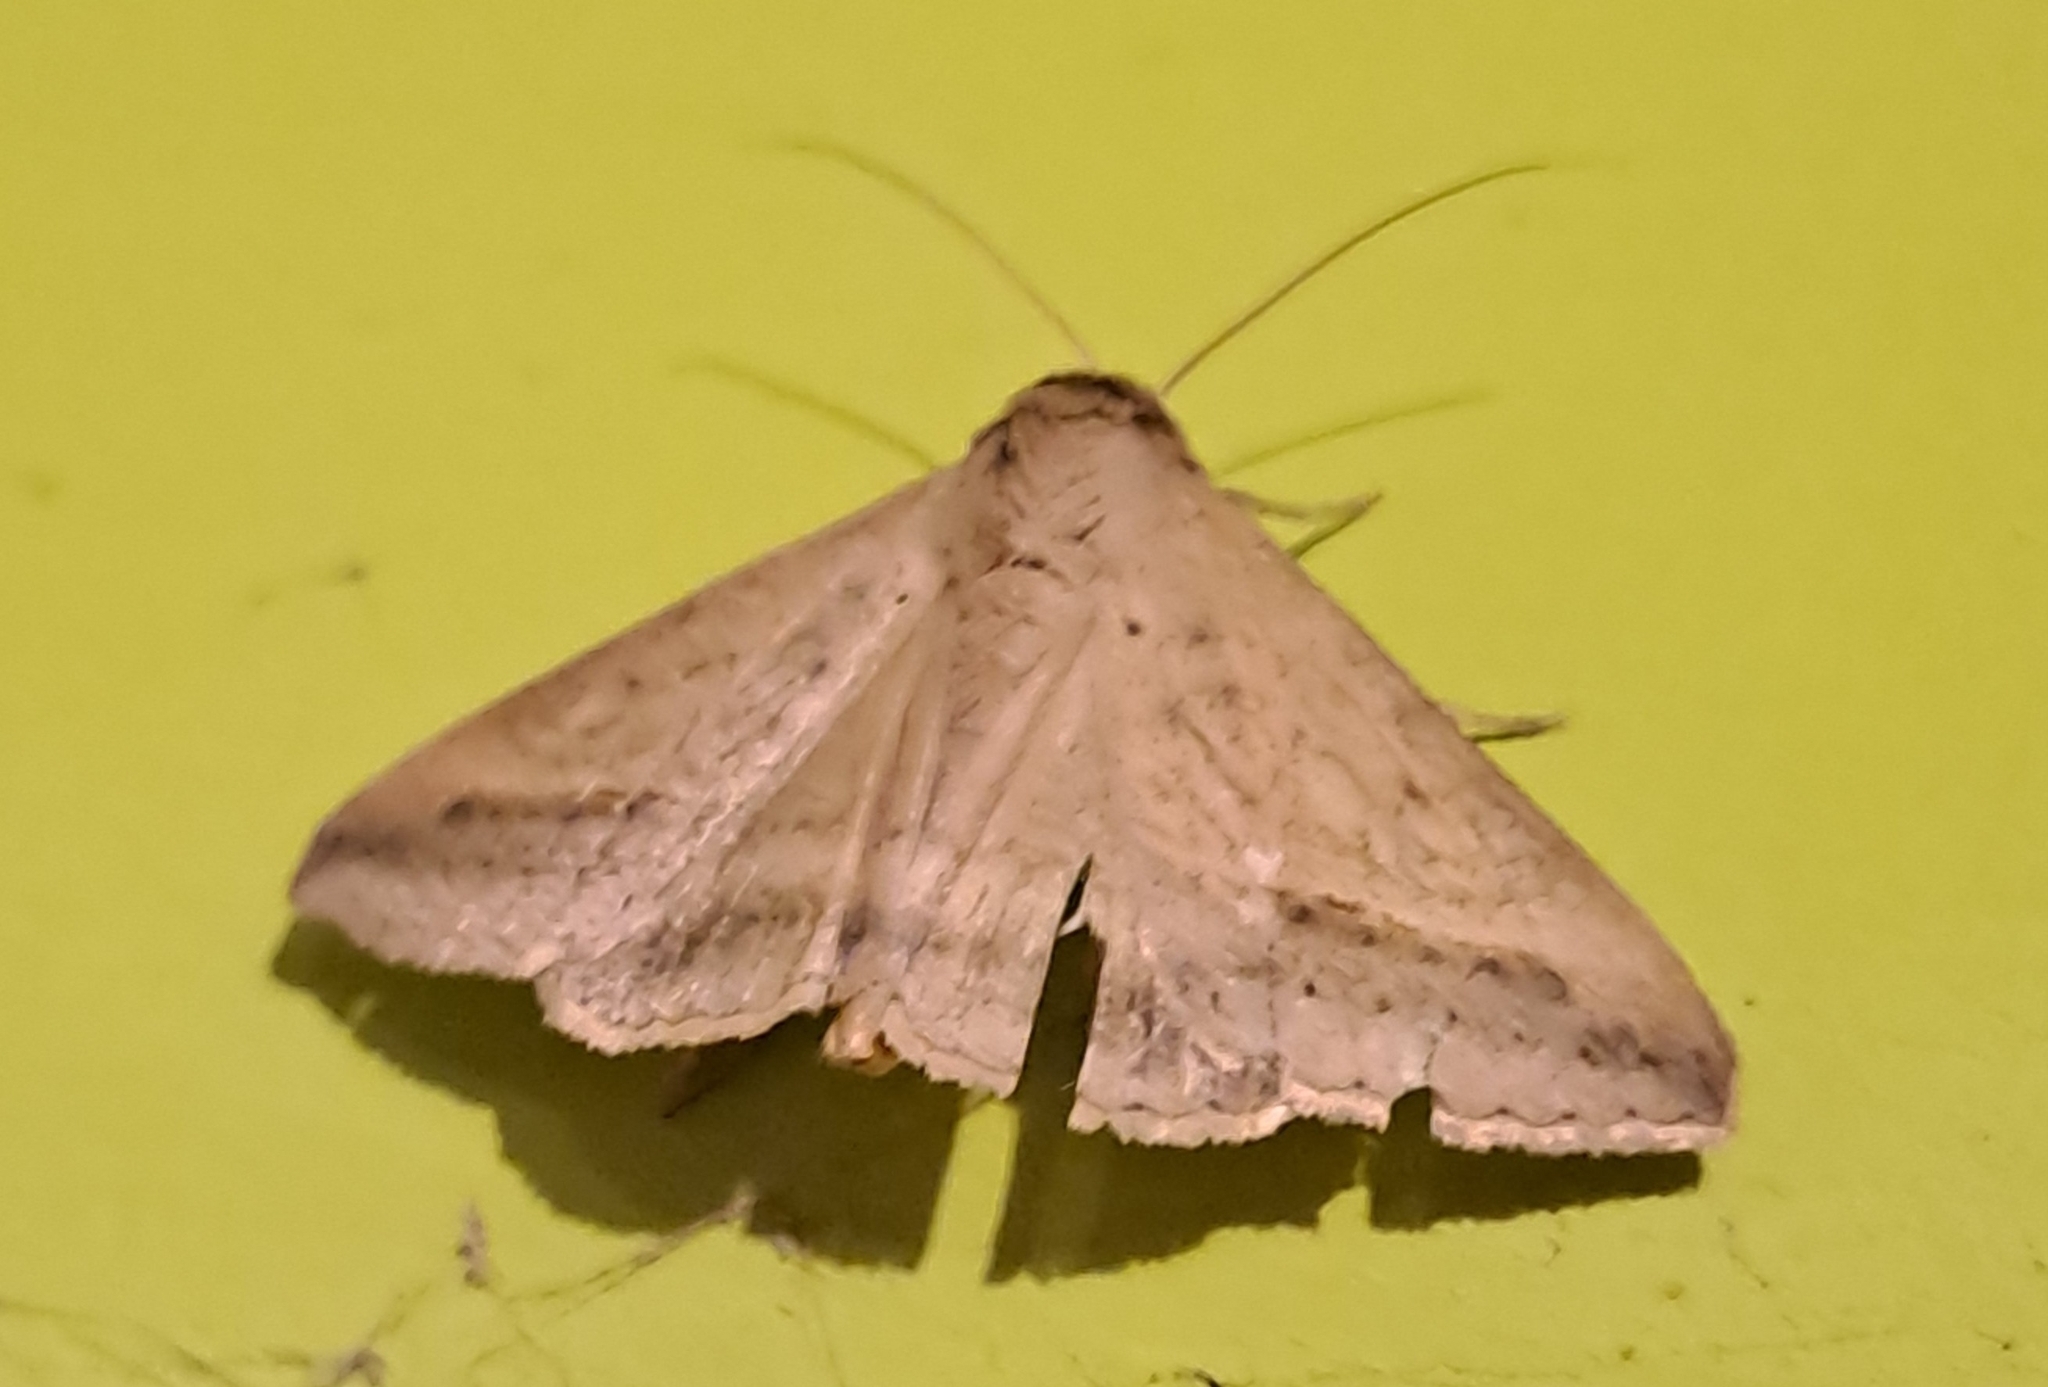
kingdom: Animalia
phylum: Arthropoda
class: Insecta
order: Lepidoptera
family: Erebidae
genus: Mocis
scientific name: Mocis frugalis
